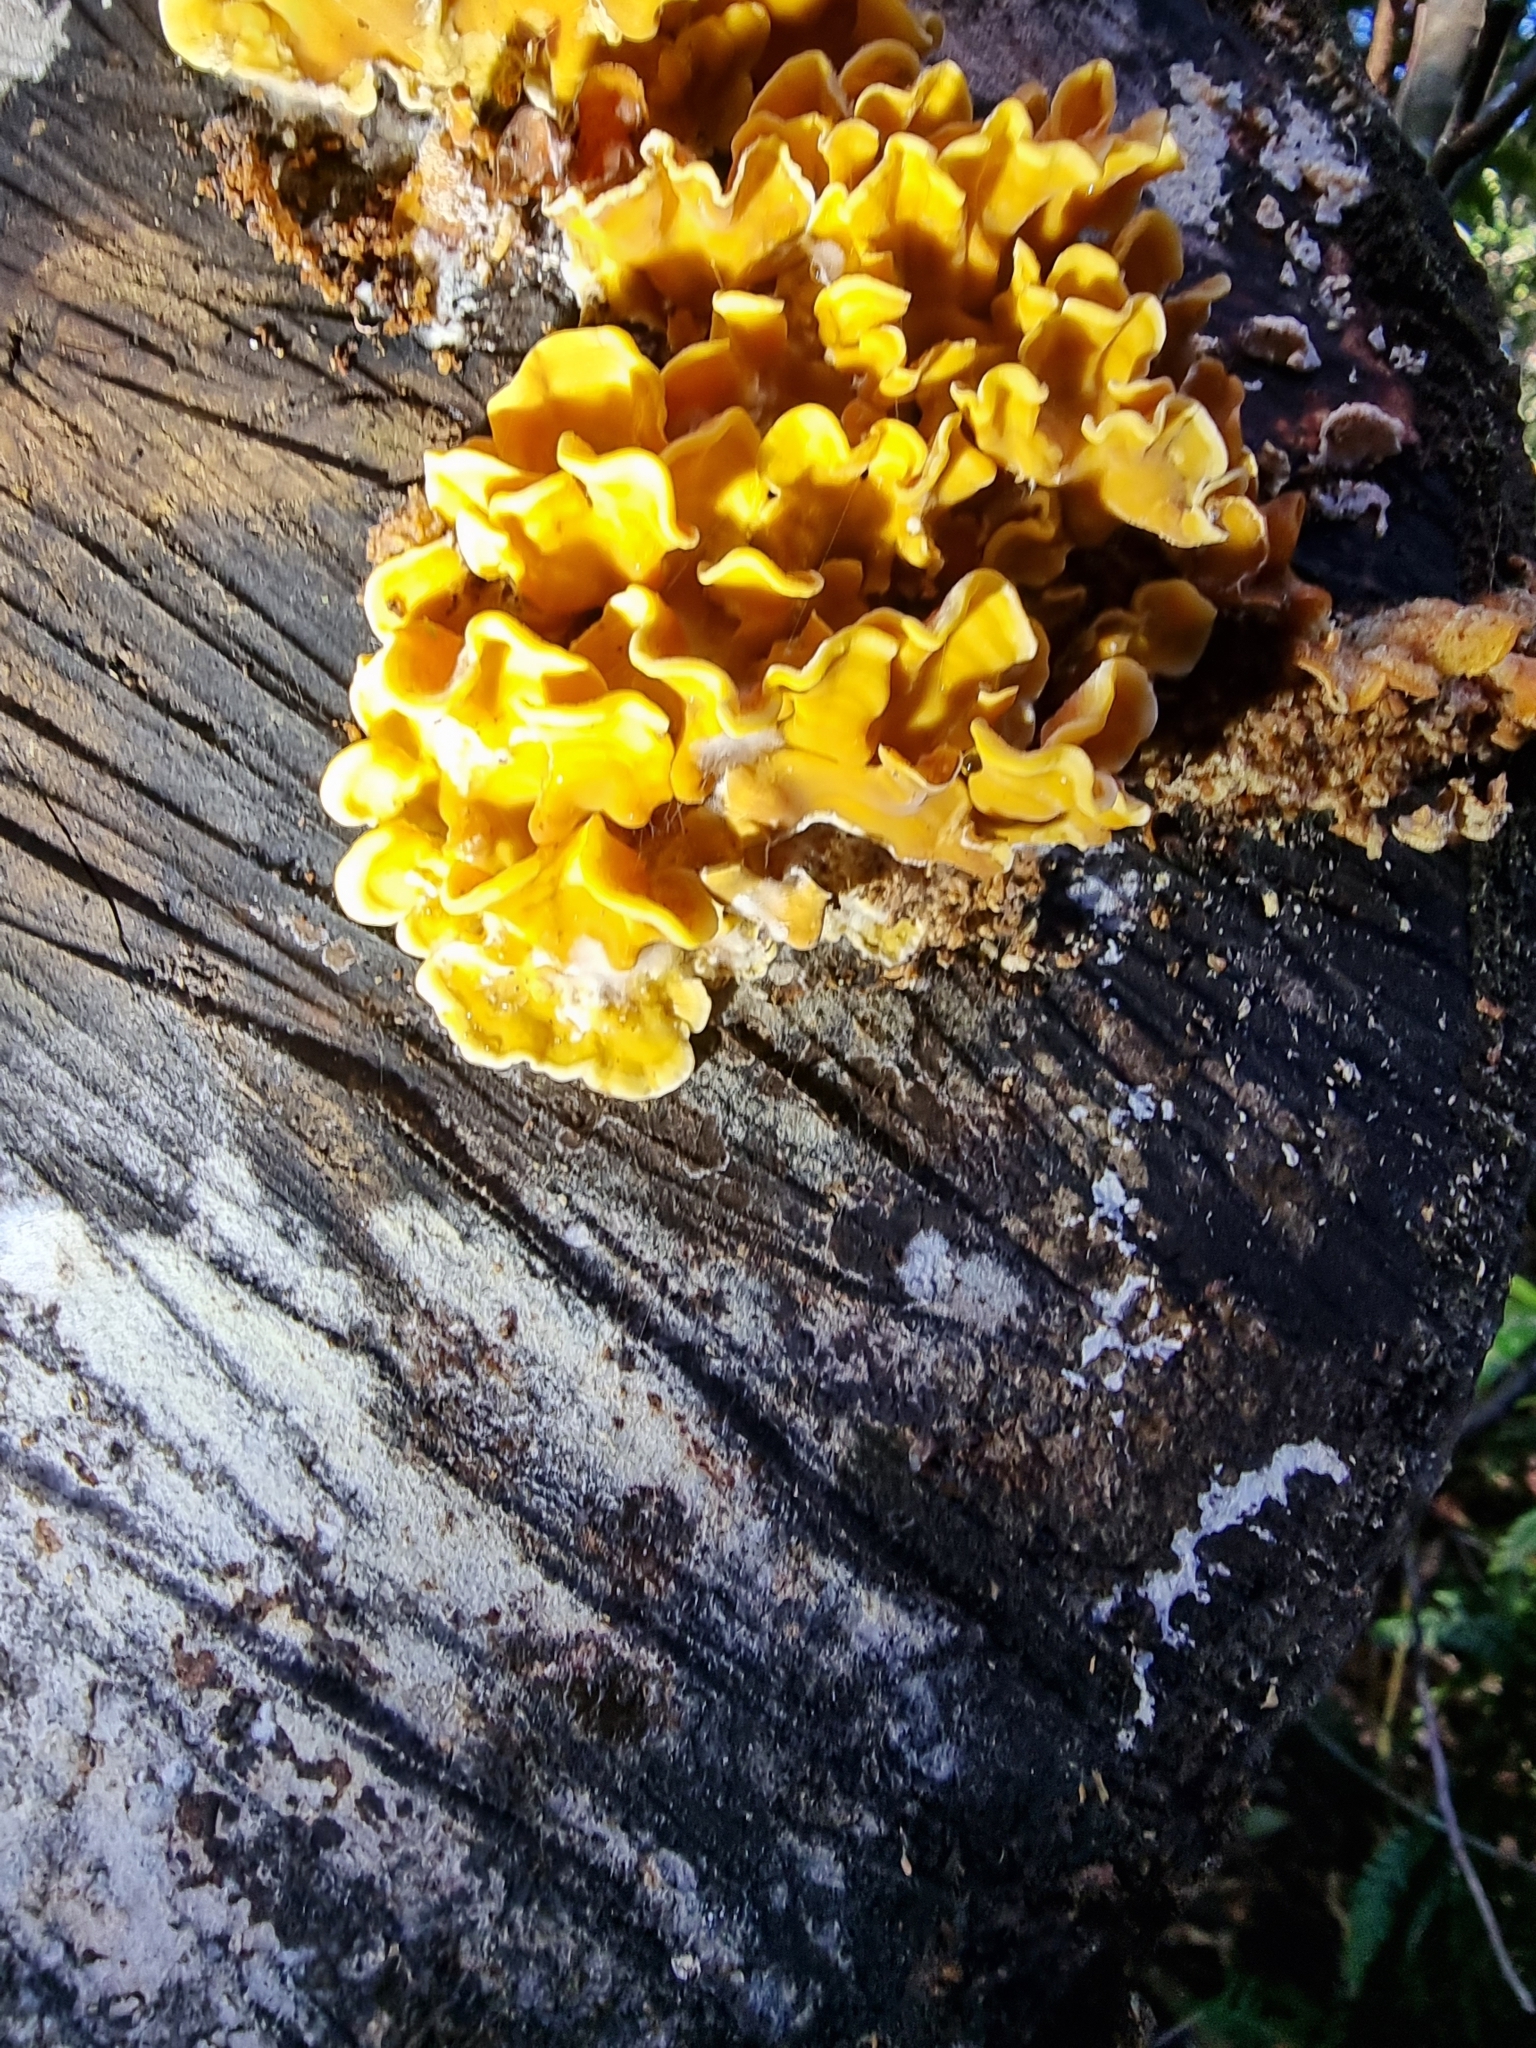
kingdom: Fungi
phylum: Basidiomycota
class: Agaricomycetes
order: Russulales
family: Stereaceae
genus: Stereum
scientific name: Stereum hirsutum
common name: Hairy curtain crust
